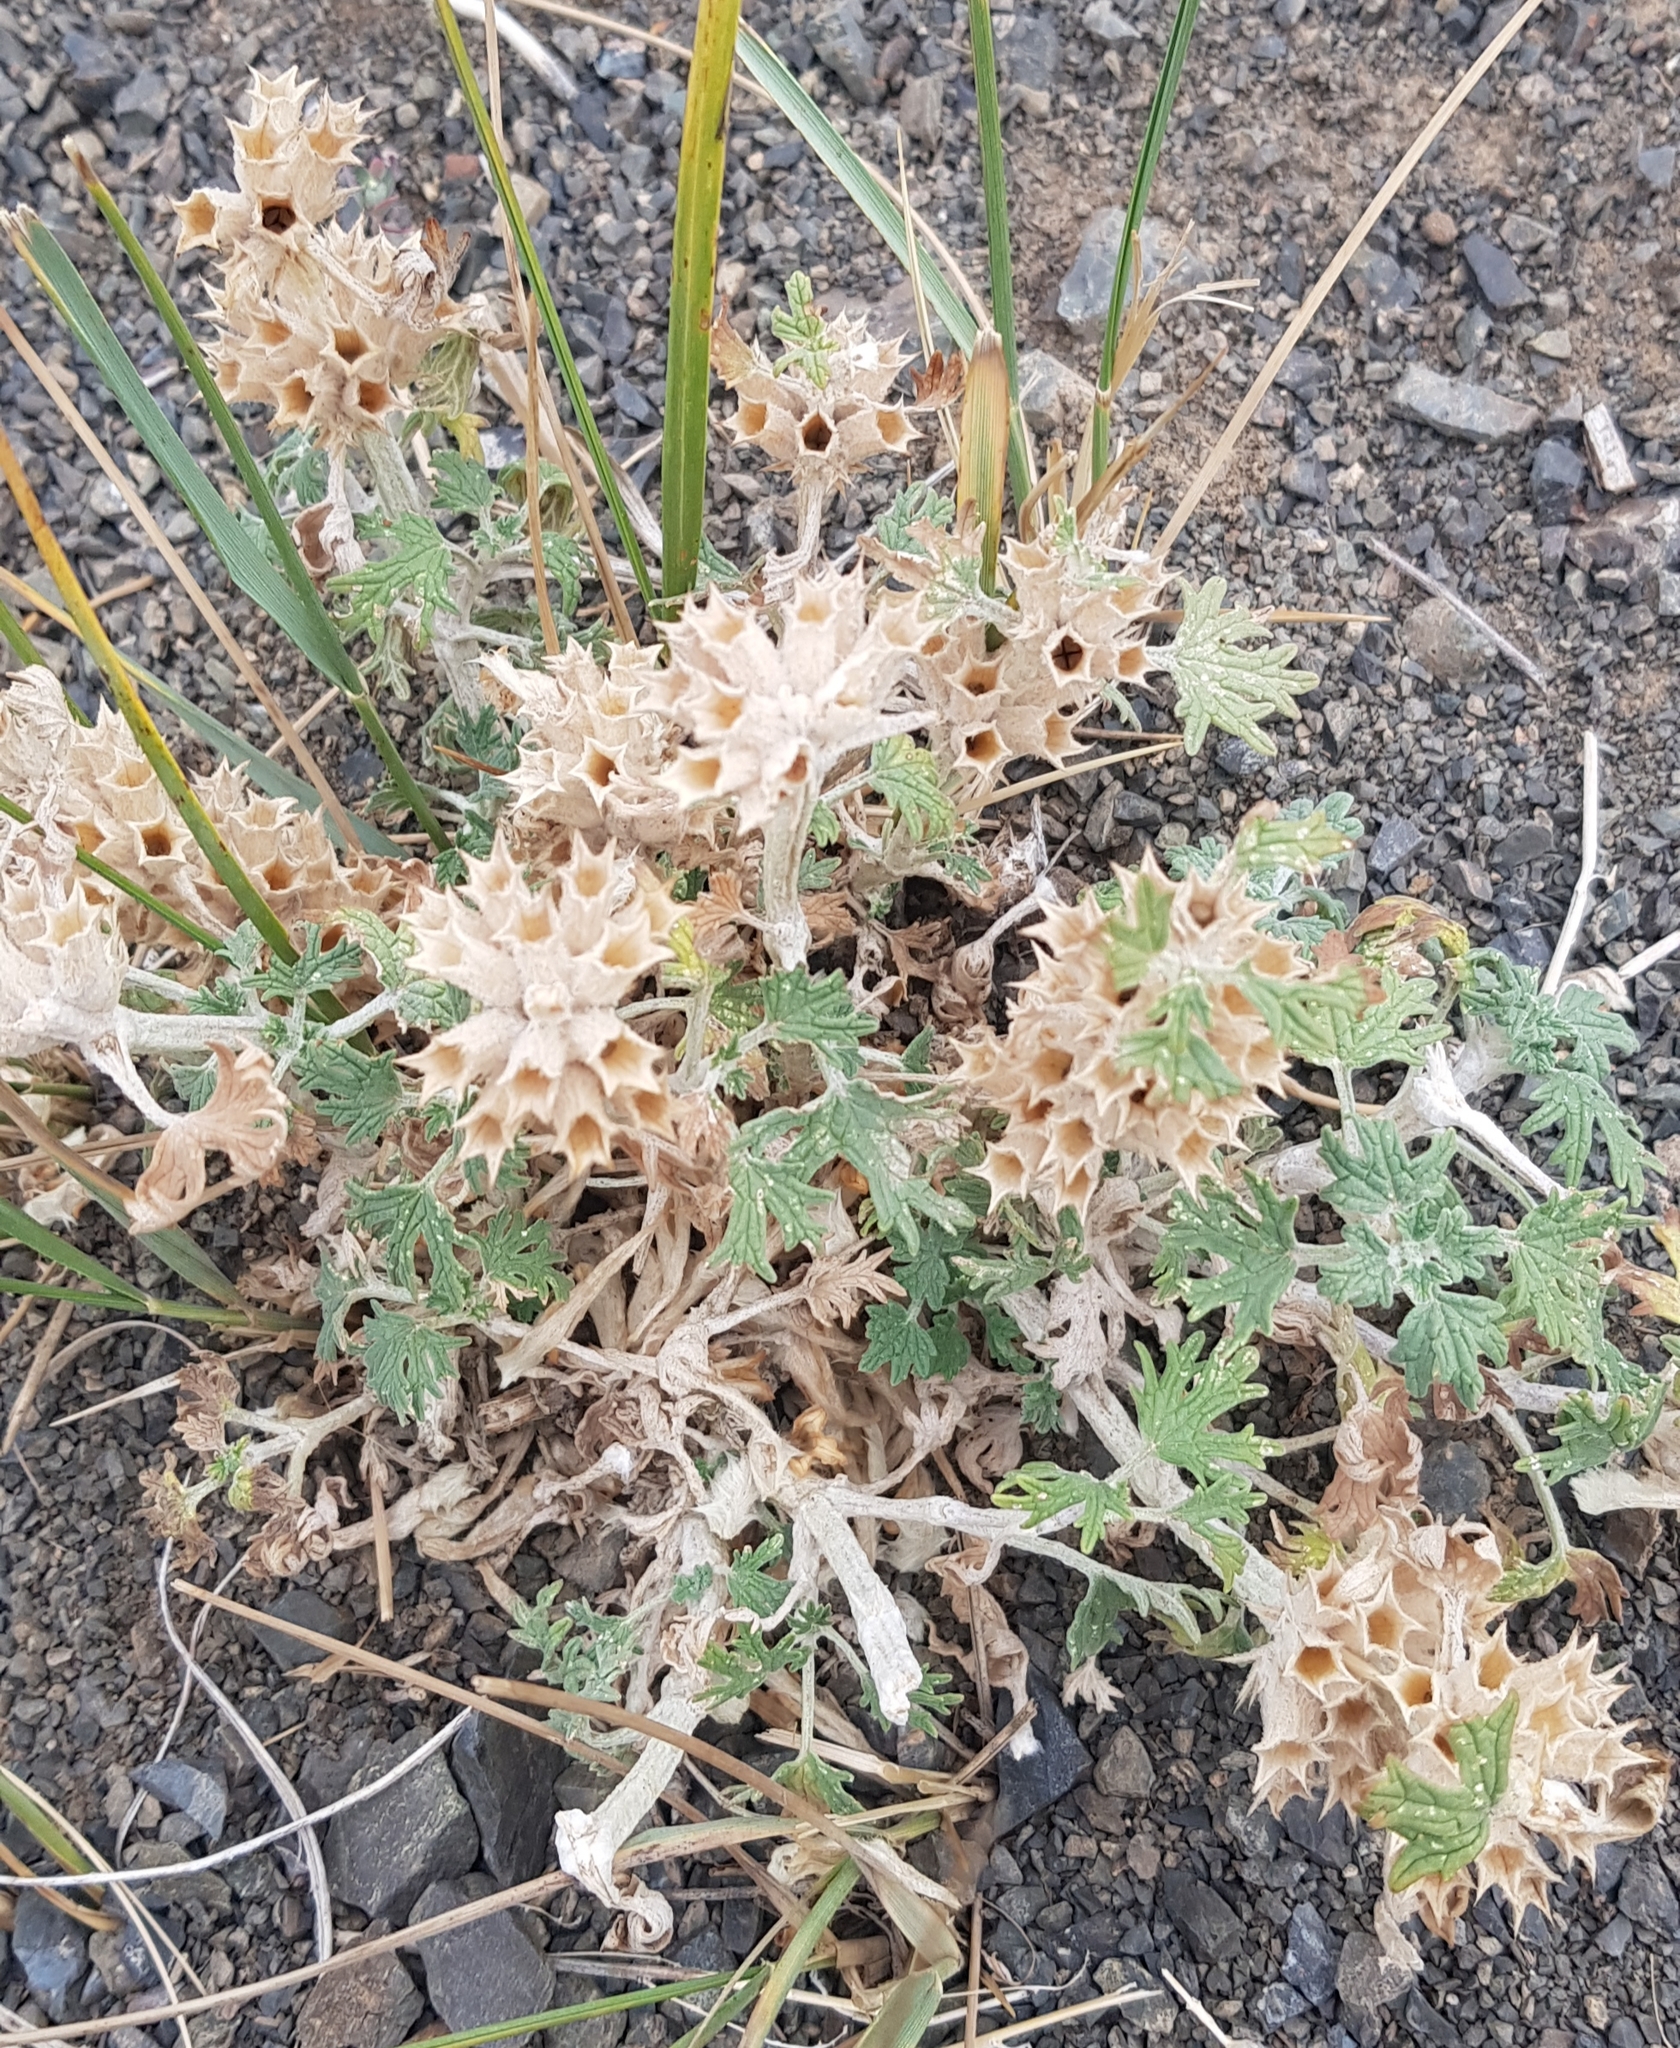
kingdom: Plantae
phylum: Tracheophyta
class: Magnoliopsida
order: Lamiales
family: Lamiaceae
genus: Panzerina
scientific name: Panzerina lanata
